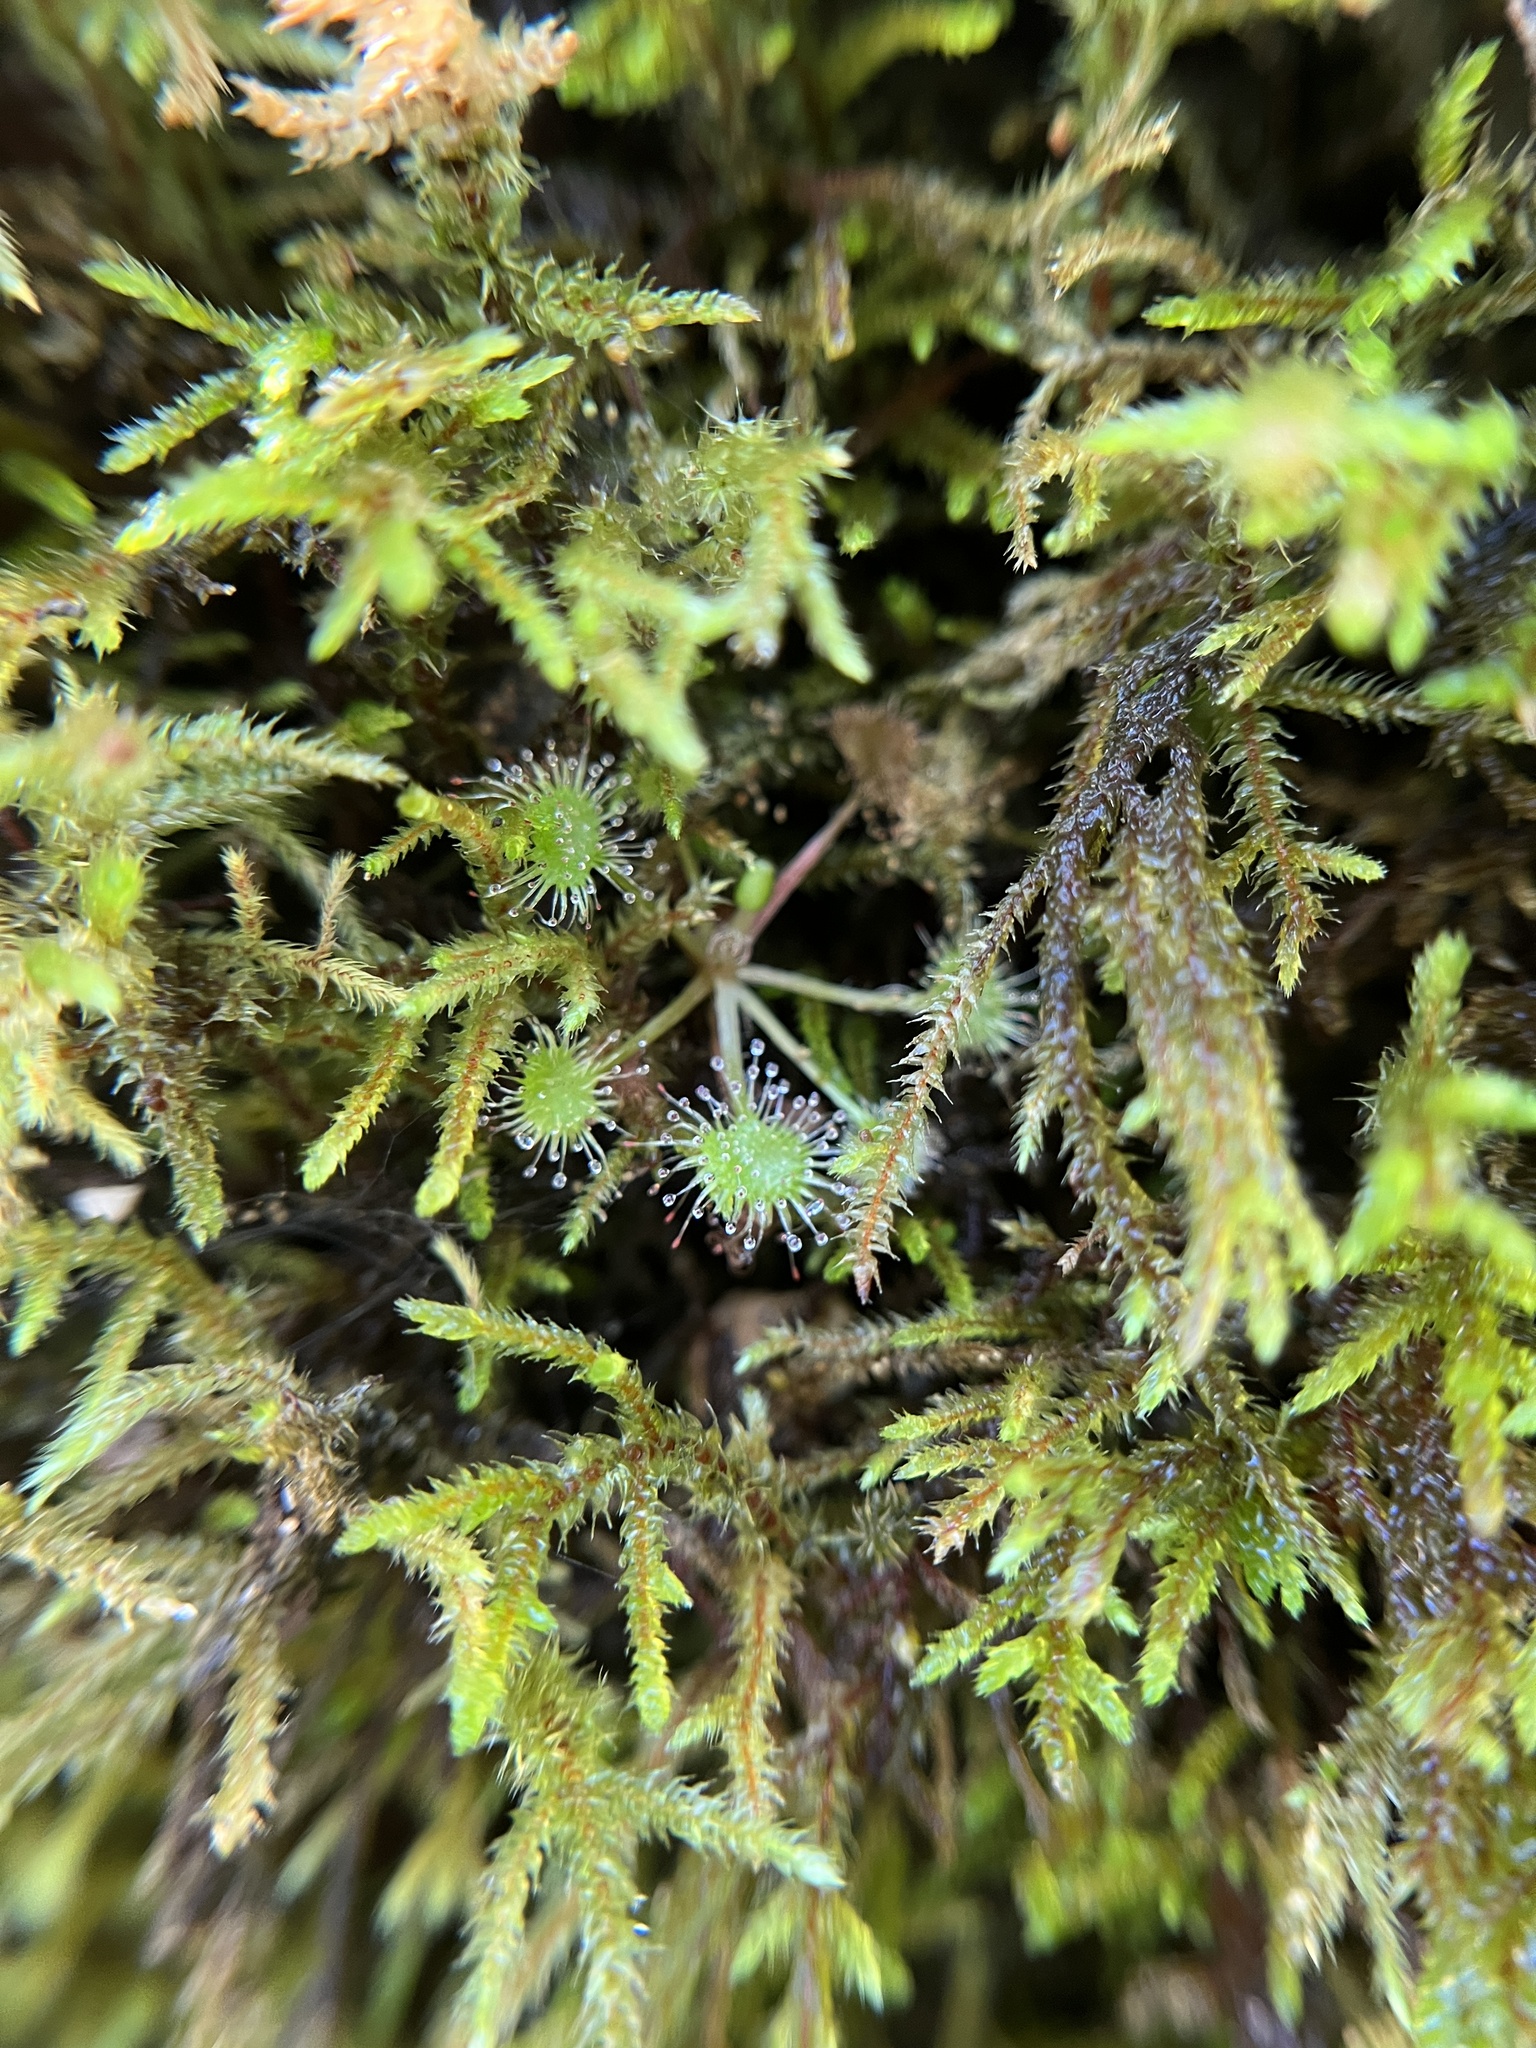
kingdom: Plantae
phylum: Tracheophyta
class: Magnoliopsida
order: Caryophyllales
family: Droseraceae
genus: Drosera
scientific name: Drosera rotundifolia
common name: Round-leaved sundew
